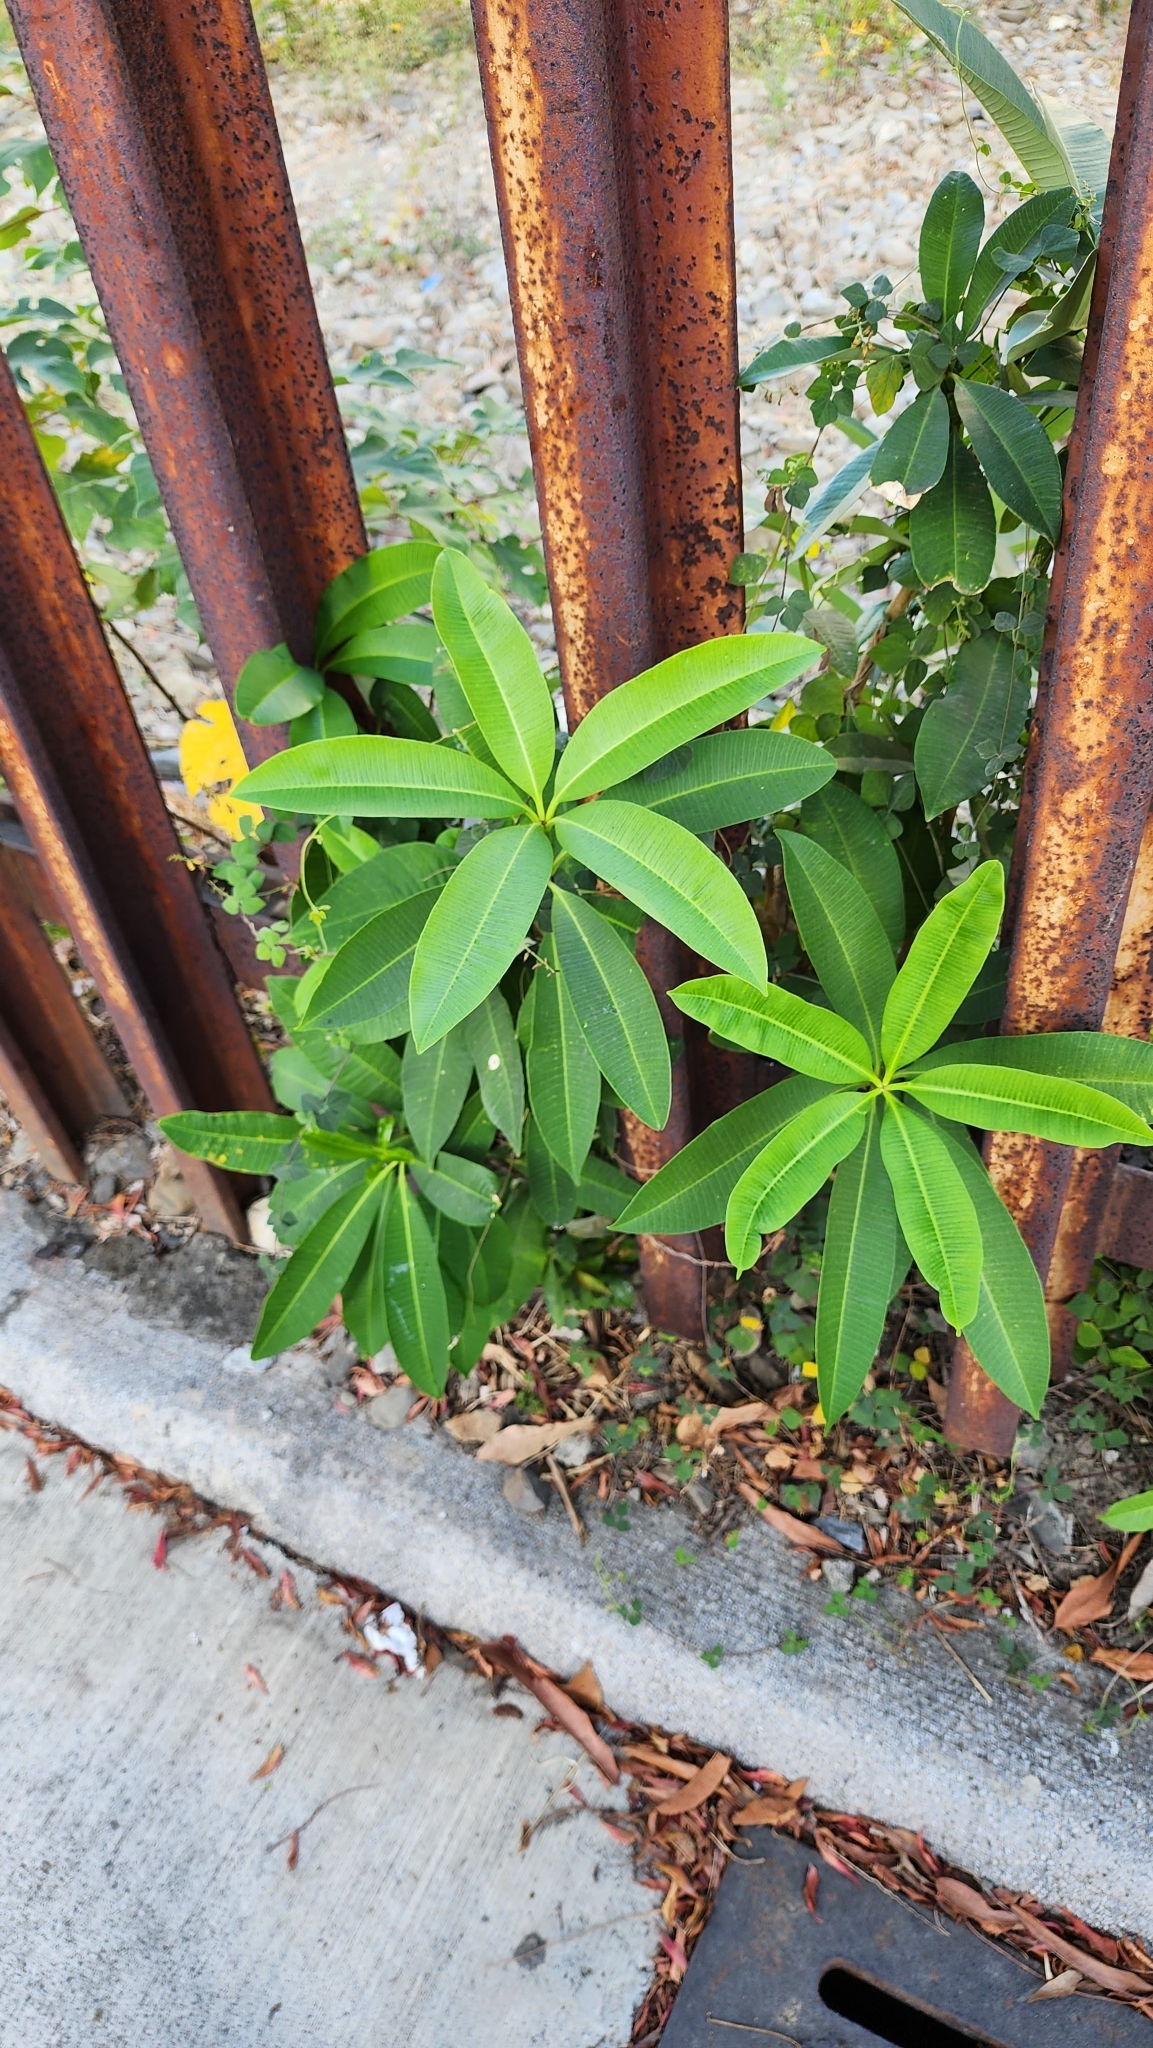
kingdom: Plantae
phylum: Tracheophyta
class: Magnoliopsida
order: Gentianales
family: Apocynaceae
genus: Alstonia
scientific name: Alstonia scholaris
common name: White cheesewood
